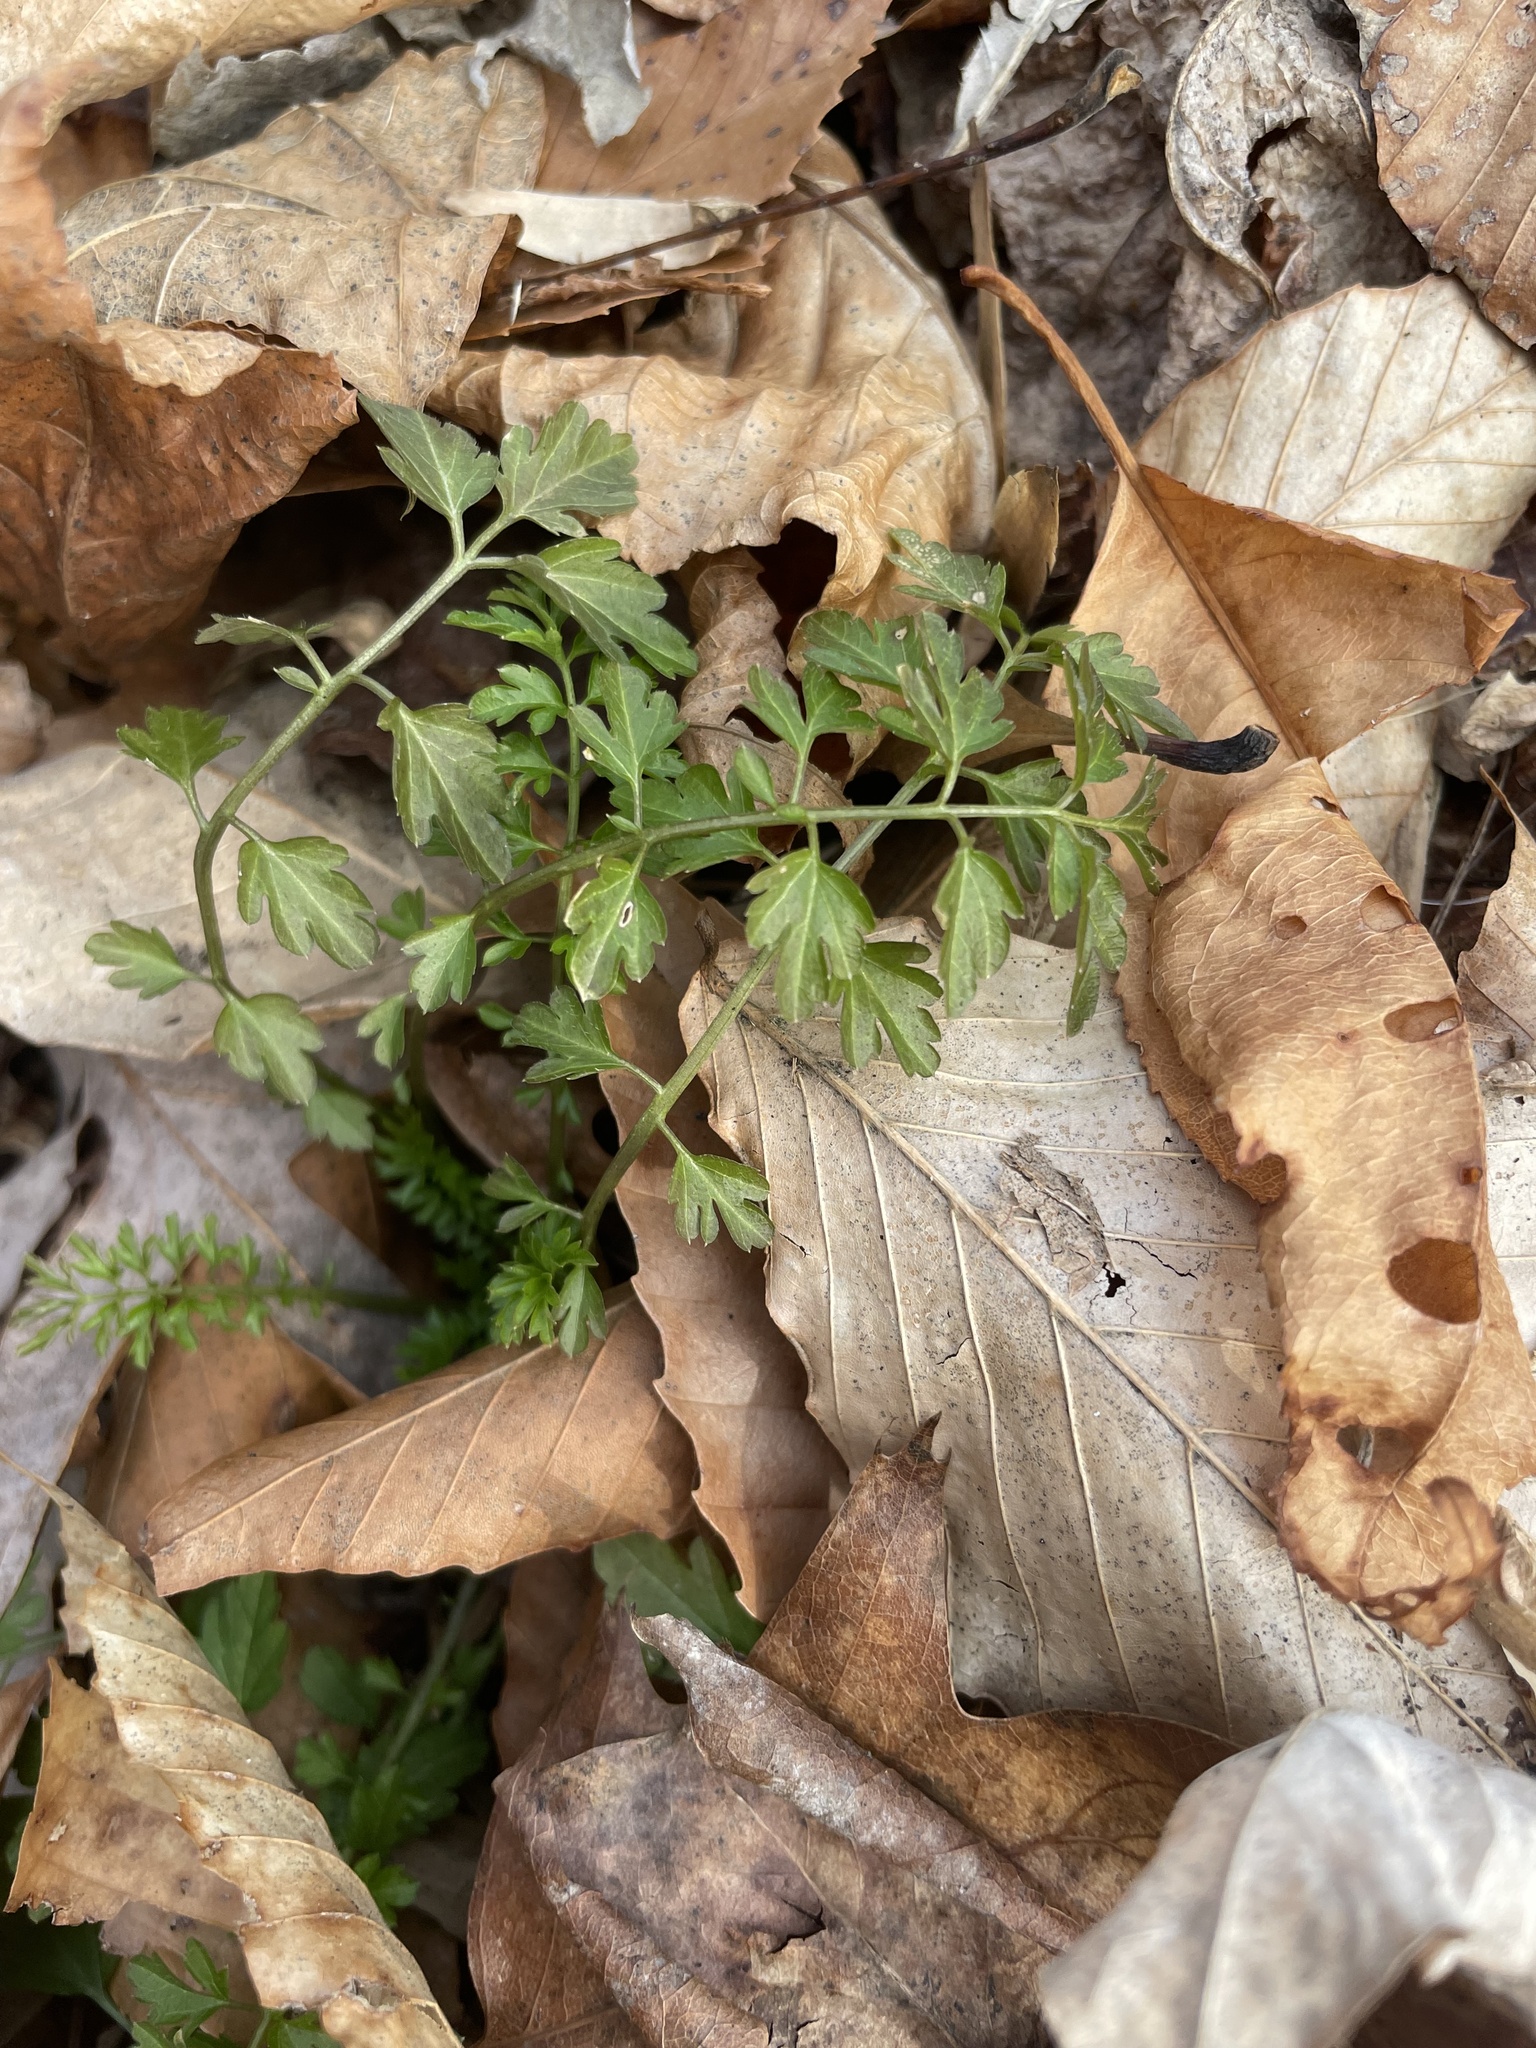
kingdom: Plantae
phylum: Tracheophyta
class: Magnoliopsida
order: Brassicales
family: Brassicaceae
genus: Cardamine
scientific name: Cardamine impatiens
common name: Narrow-leaved bitter-cress
